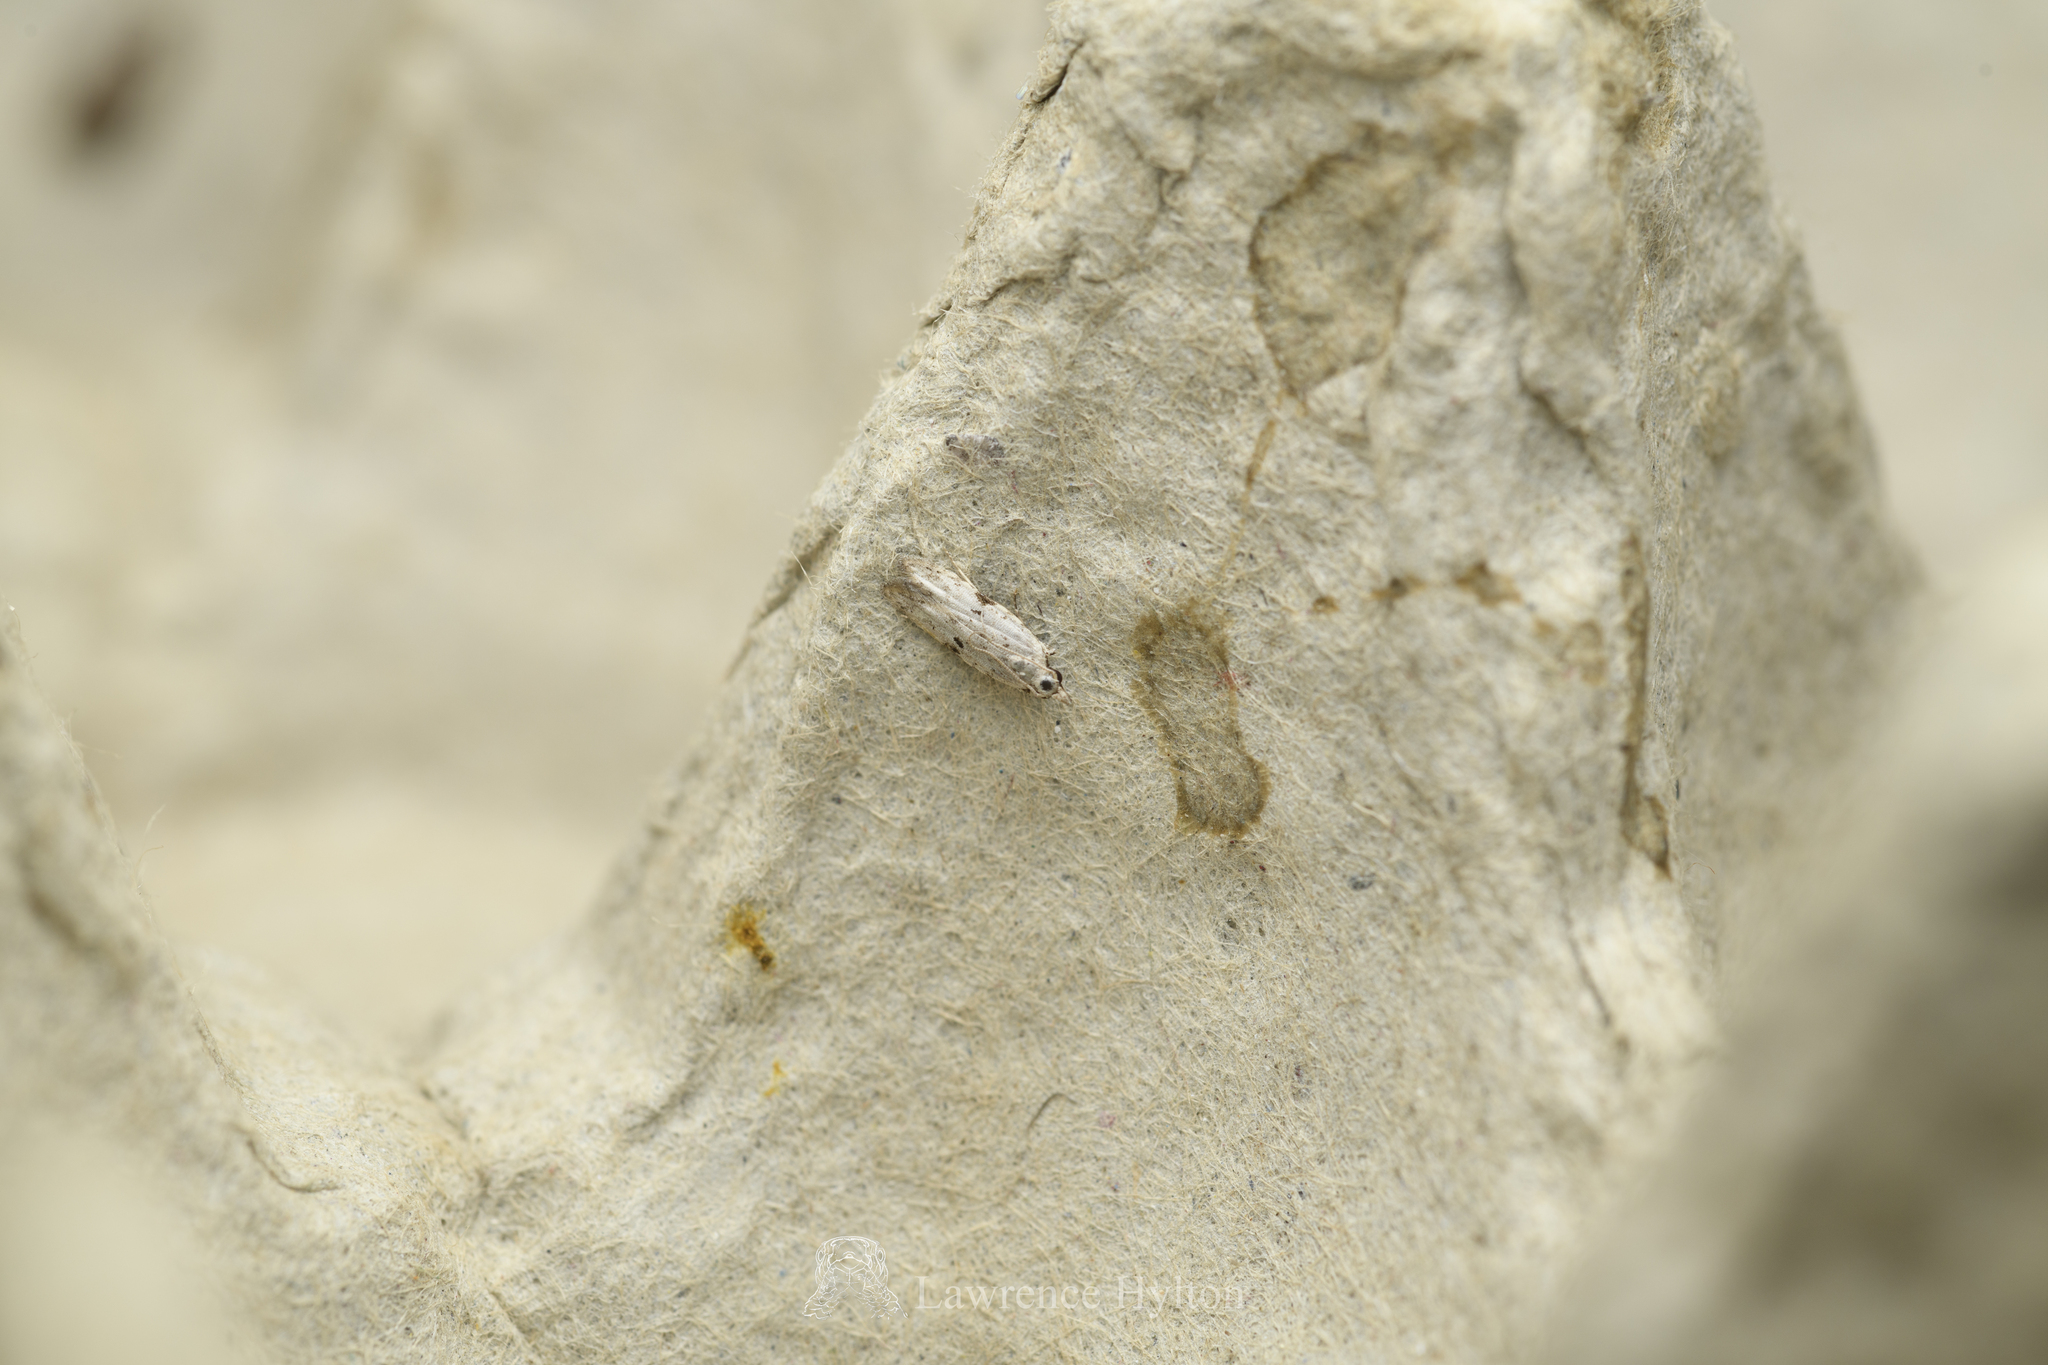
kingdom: Animalia
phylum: Arthropoda
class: Insecta
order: Lepidoptera
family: Gelechiidae
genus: Anarsia
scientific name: Anarsia patulella
